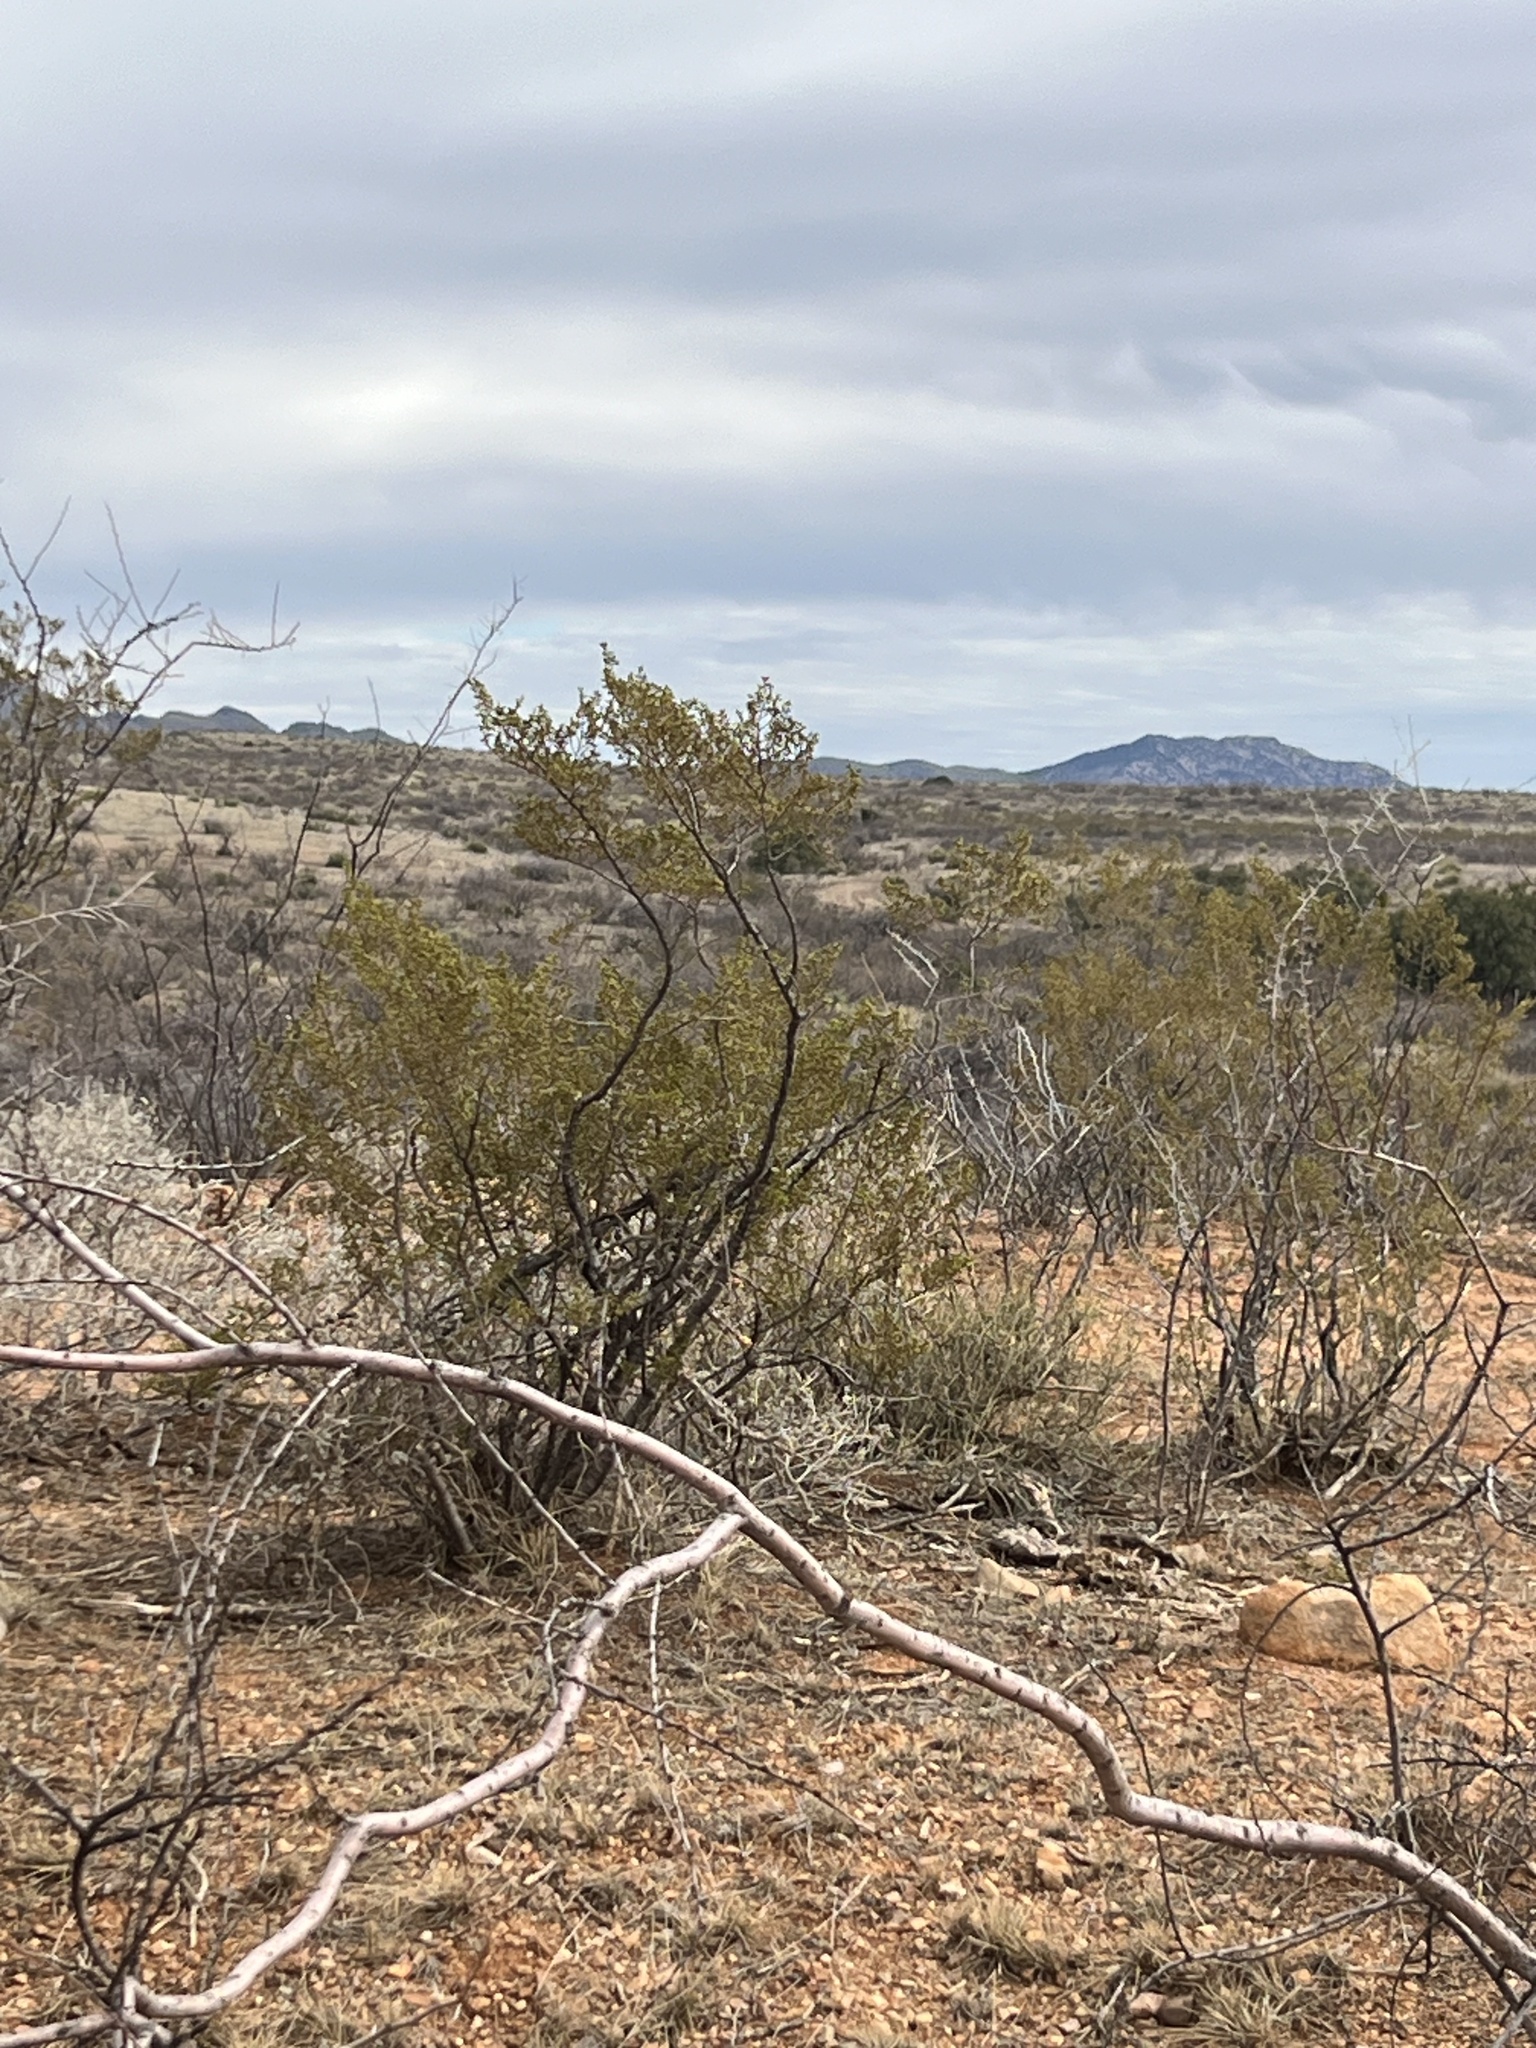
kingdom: Plantae
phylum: Tracheophyta
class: Magnoliopsida
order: Zygophyllales
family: Zygophyllaceae
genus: Larrea
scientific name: Larrea tridentata
